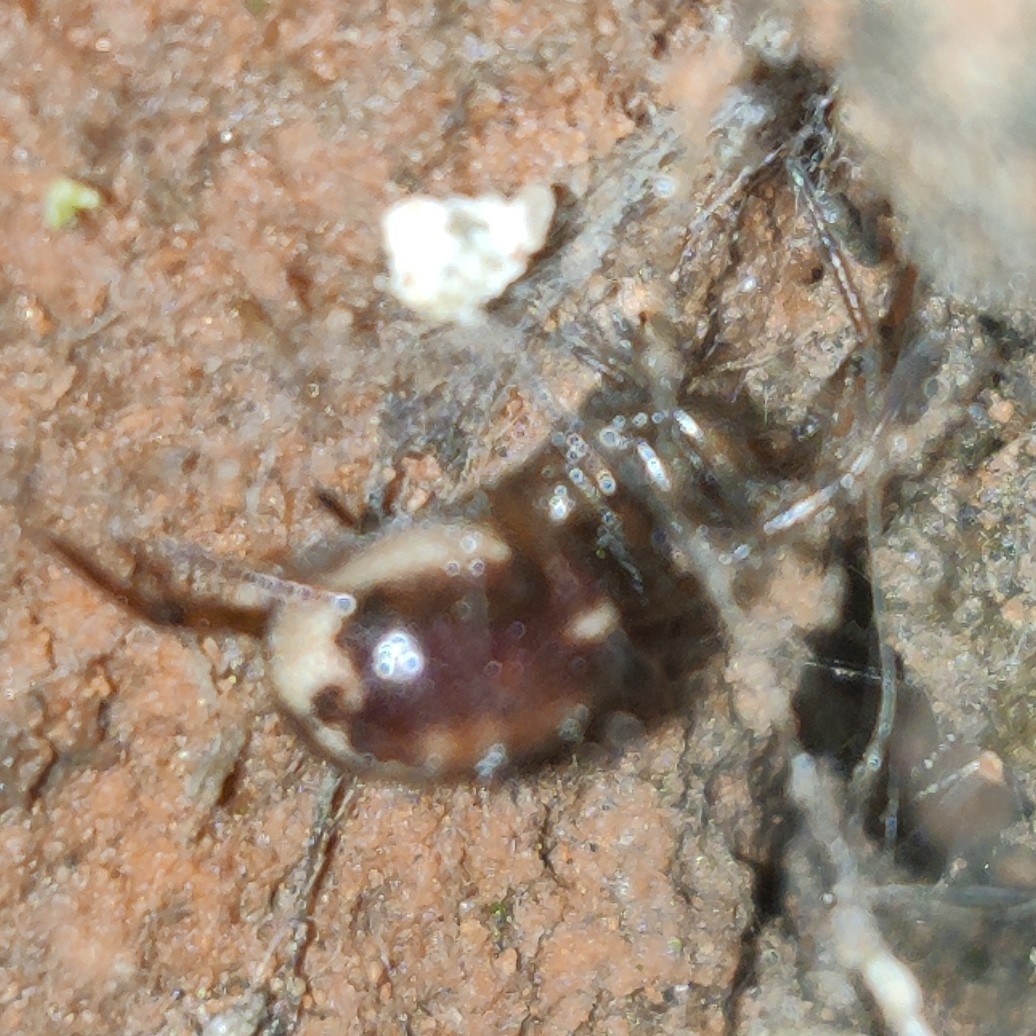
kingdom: Animalia
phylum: Arthropoda
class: Arachnida
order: Araneae
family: Theridiidae
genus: Steatoda
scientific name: Steatoda bipunctata
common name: False widow
